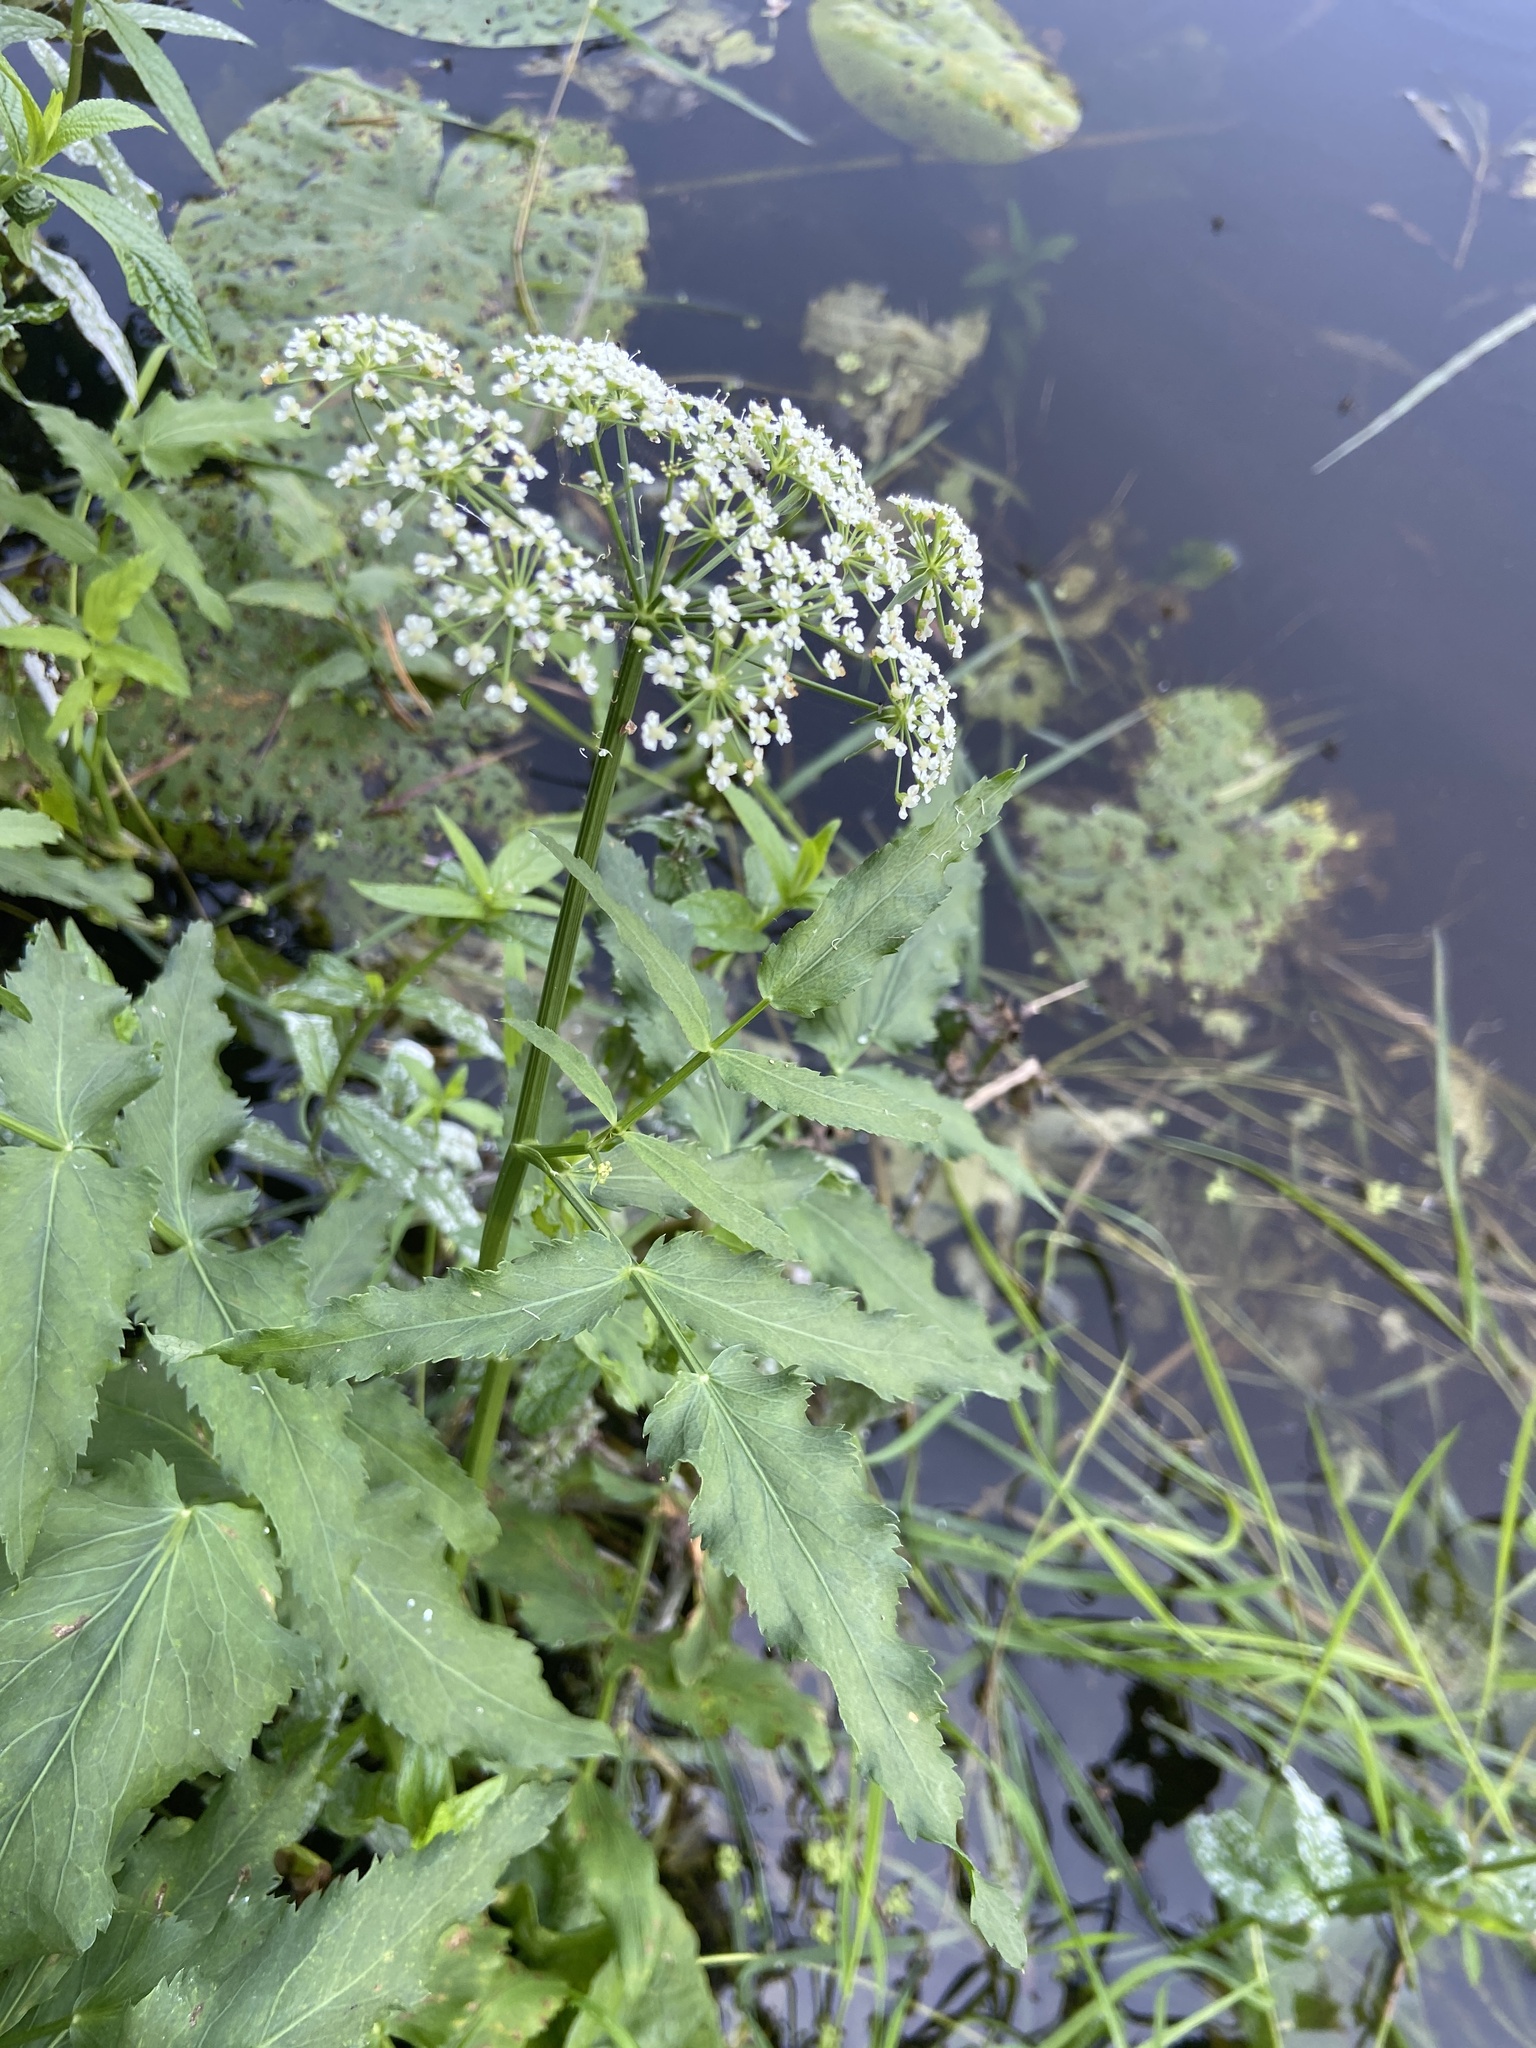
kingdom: Plantae
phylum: Tracheophyta
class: Magnoliopsida
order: Apiales
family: Apiaceae
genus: Sium
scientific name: Sium latifolium
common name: Greater water-parsnip
